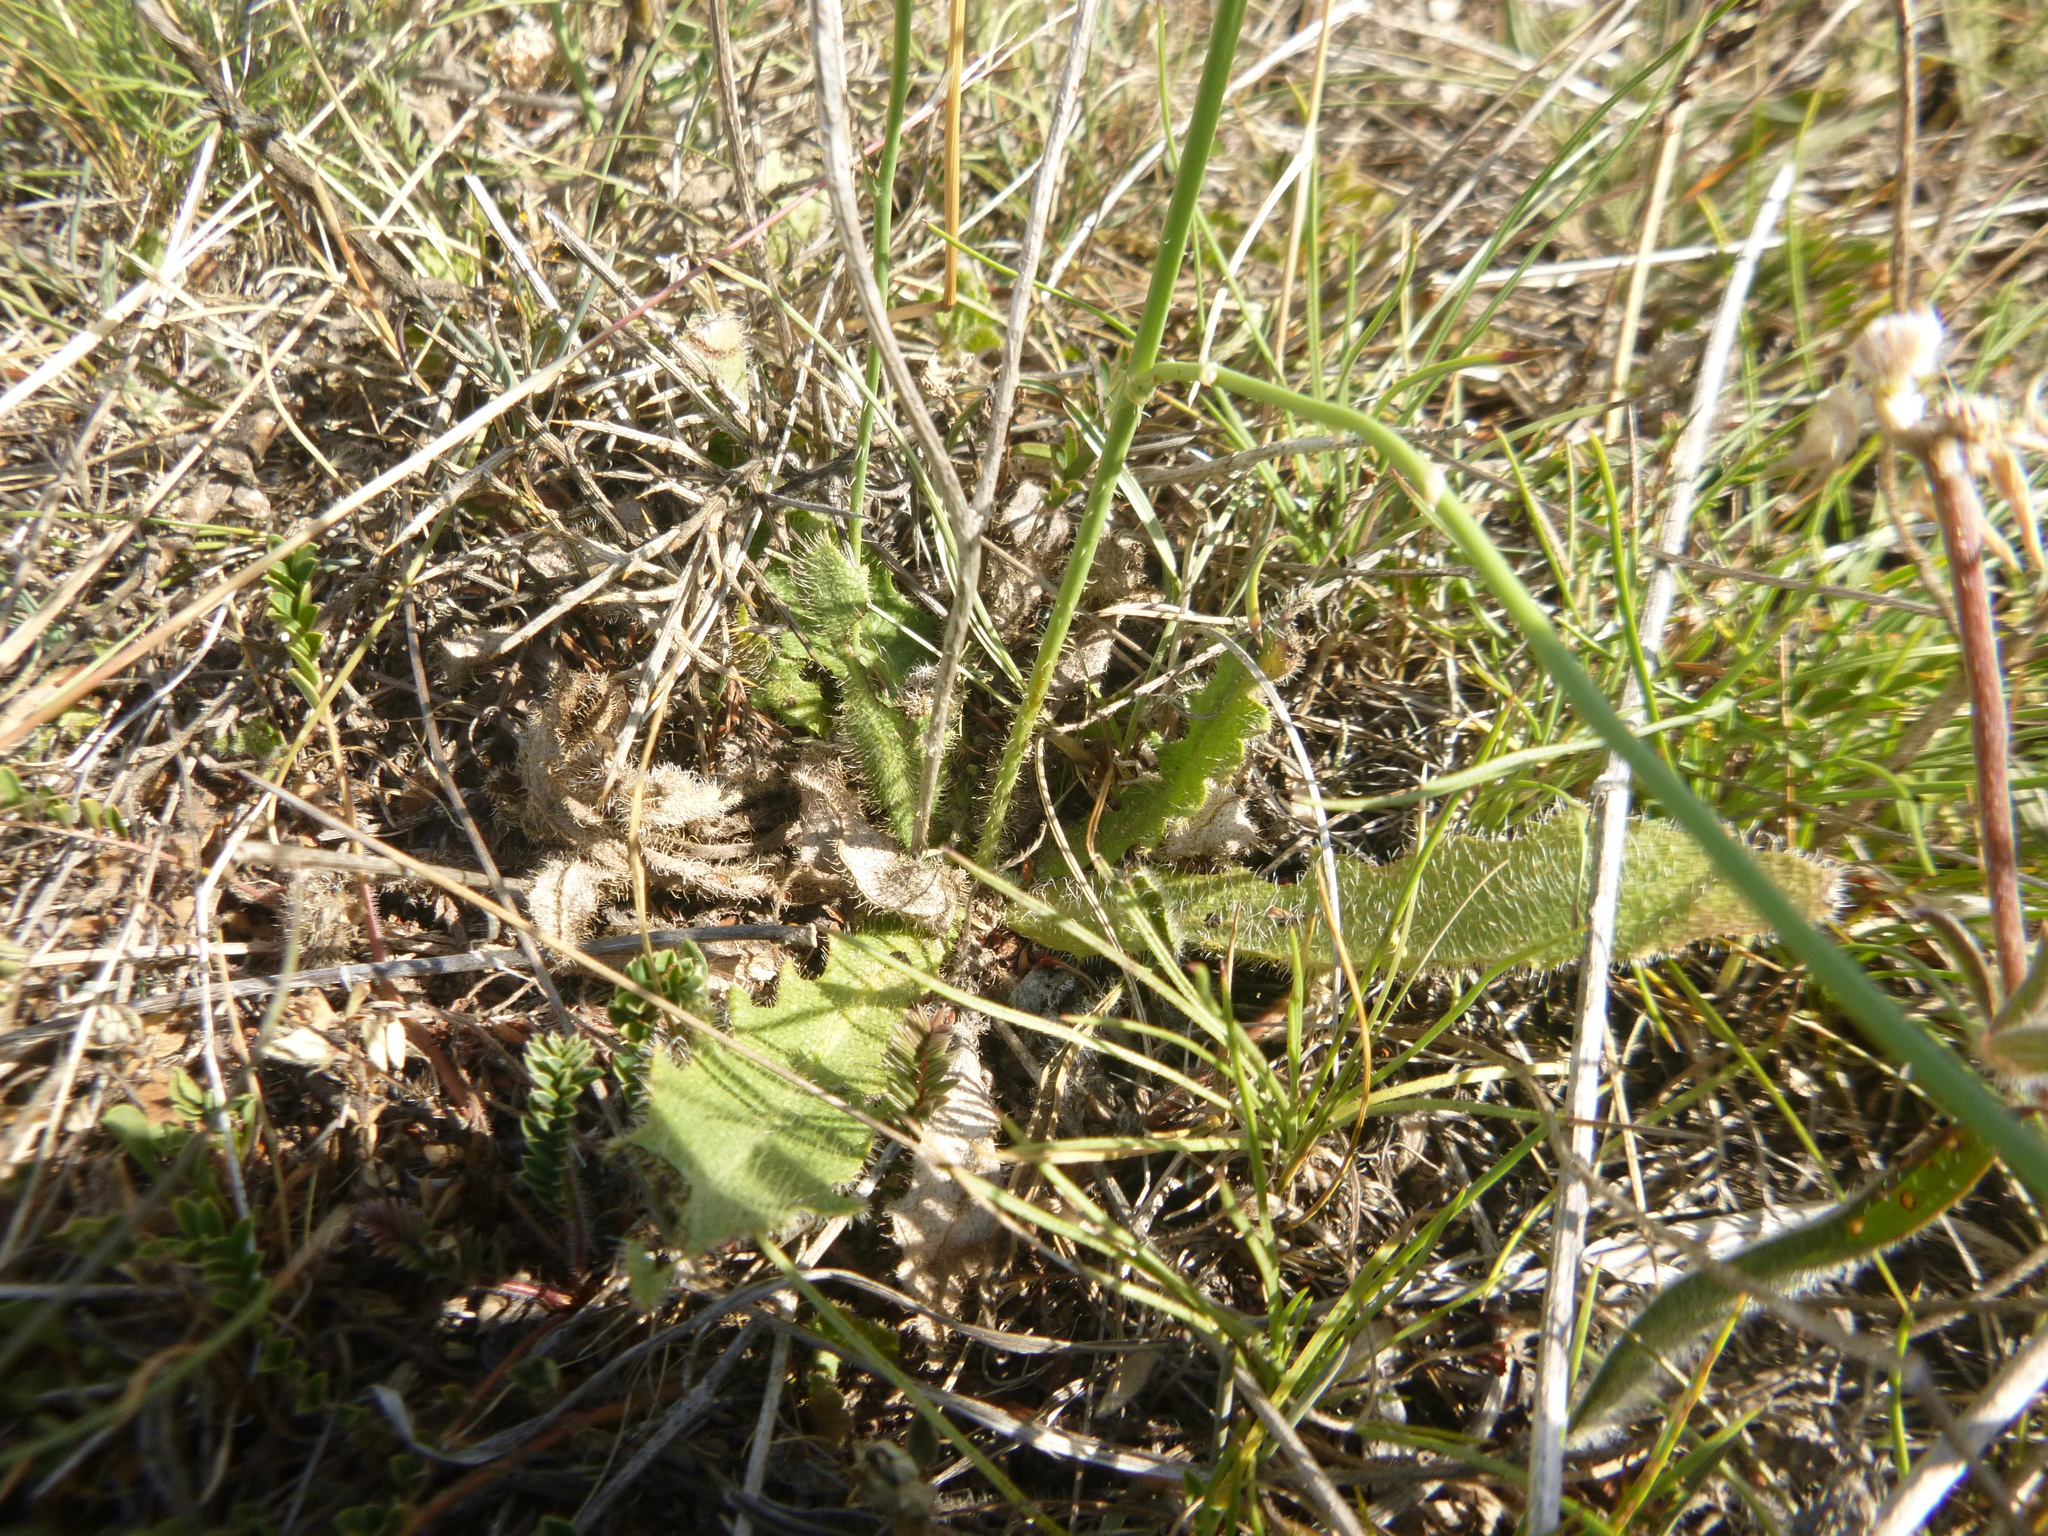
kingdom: Plantae
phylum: Tracheophyta
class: Magnoliopsida
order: Asterales
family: Asteraceae
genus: Hypochaeris
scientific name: Hypochaeris radicata
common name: Flatweed
